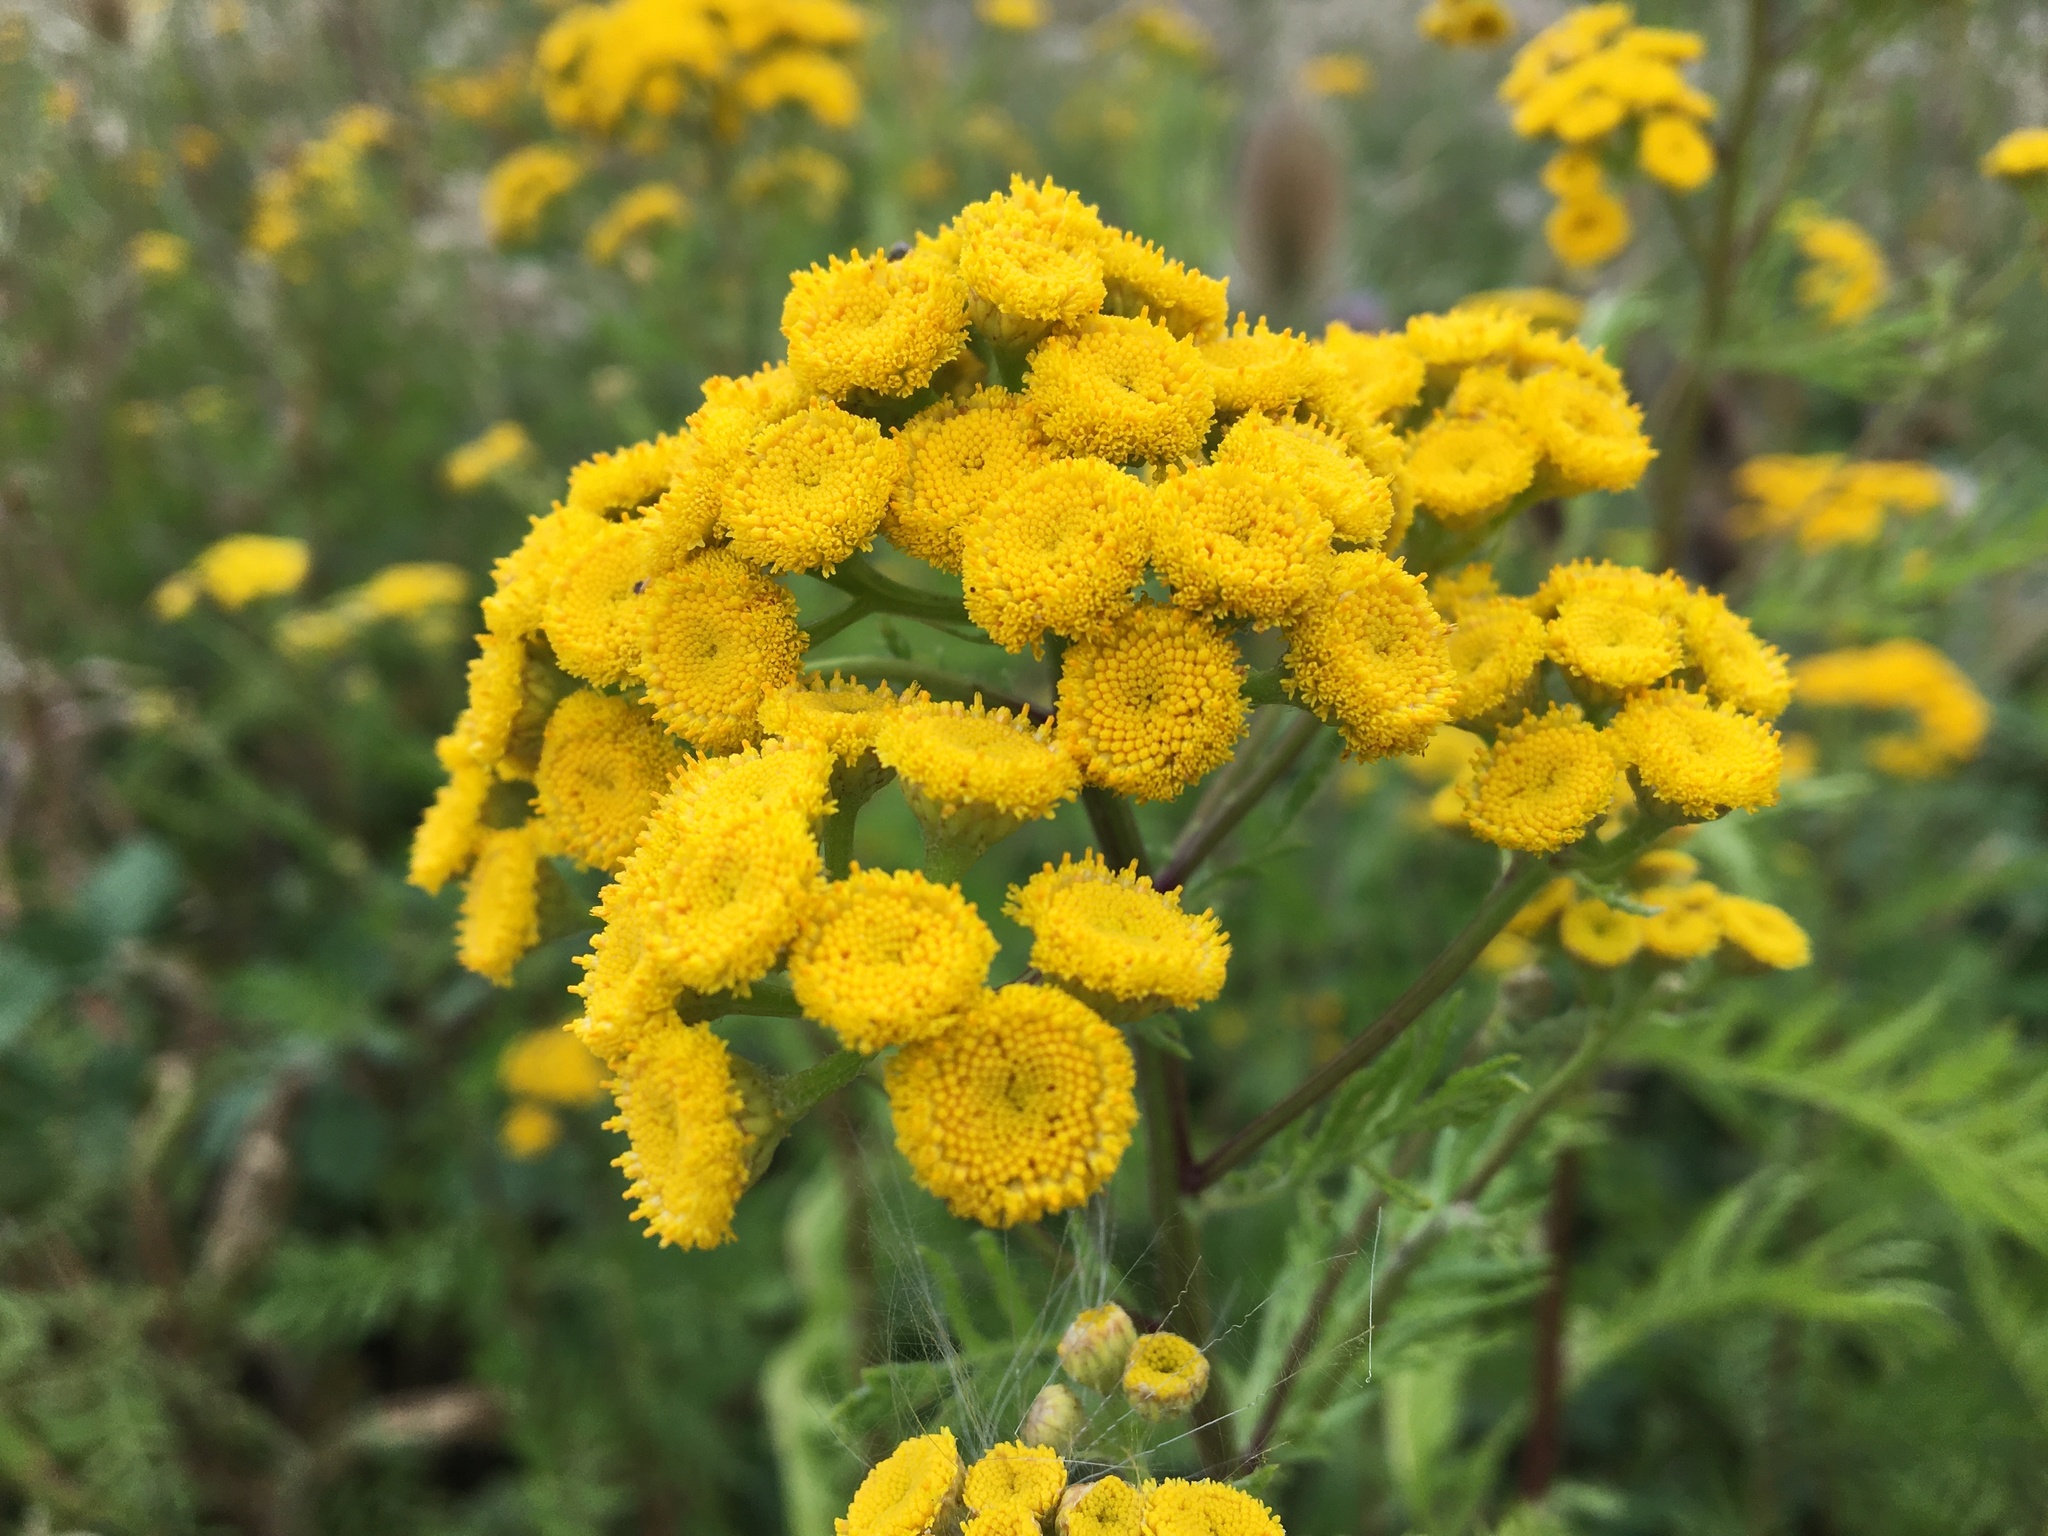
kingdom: Plantae
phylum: Tracheophyta
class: Magnoliopsida
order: Asterales
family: Asteraceae
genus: Tanacetum
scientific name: Tanacetum vulgare
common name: Common tansy
